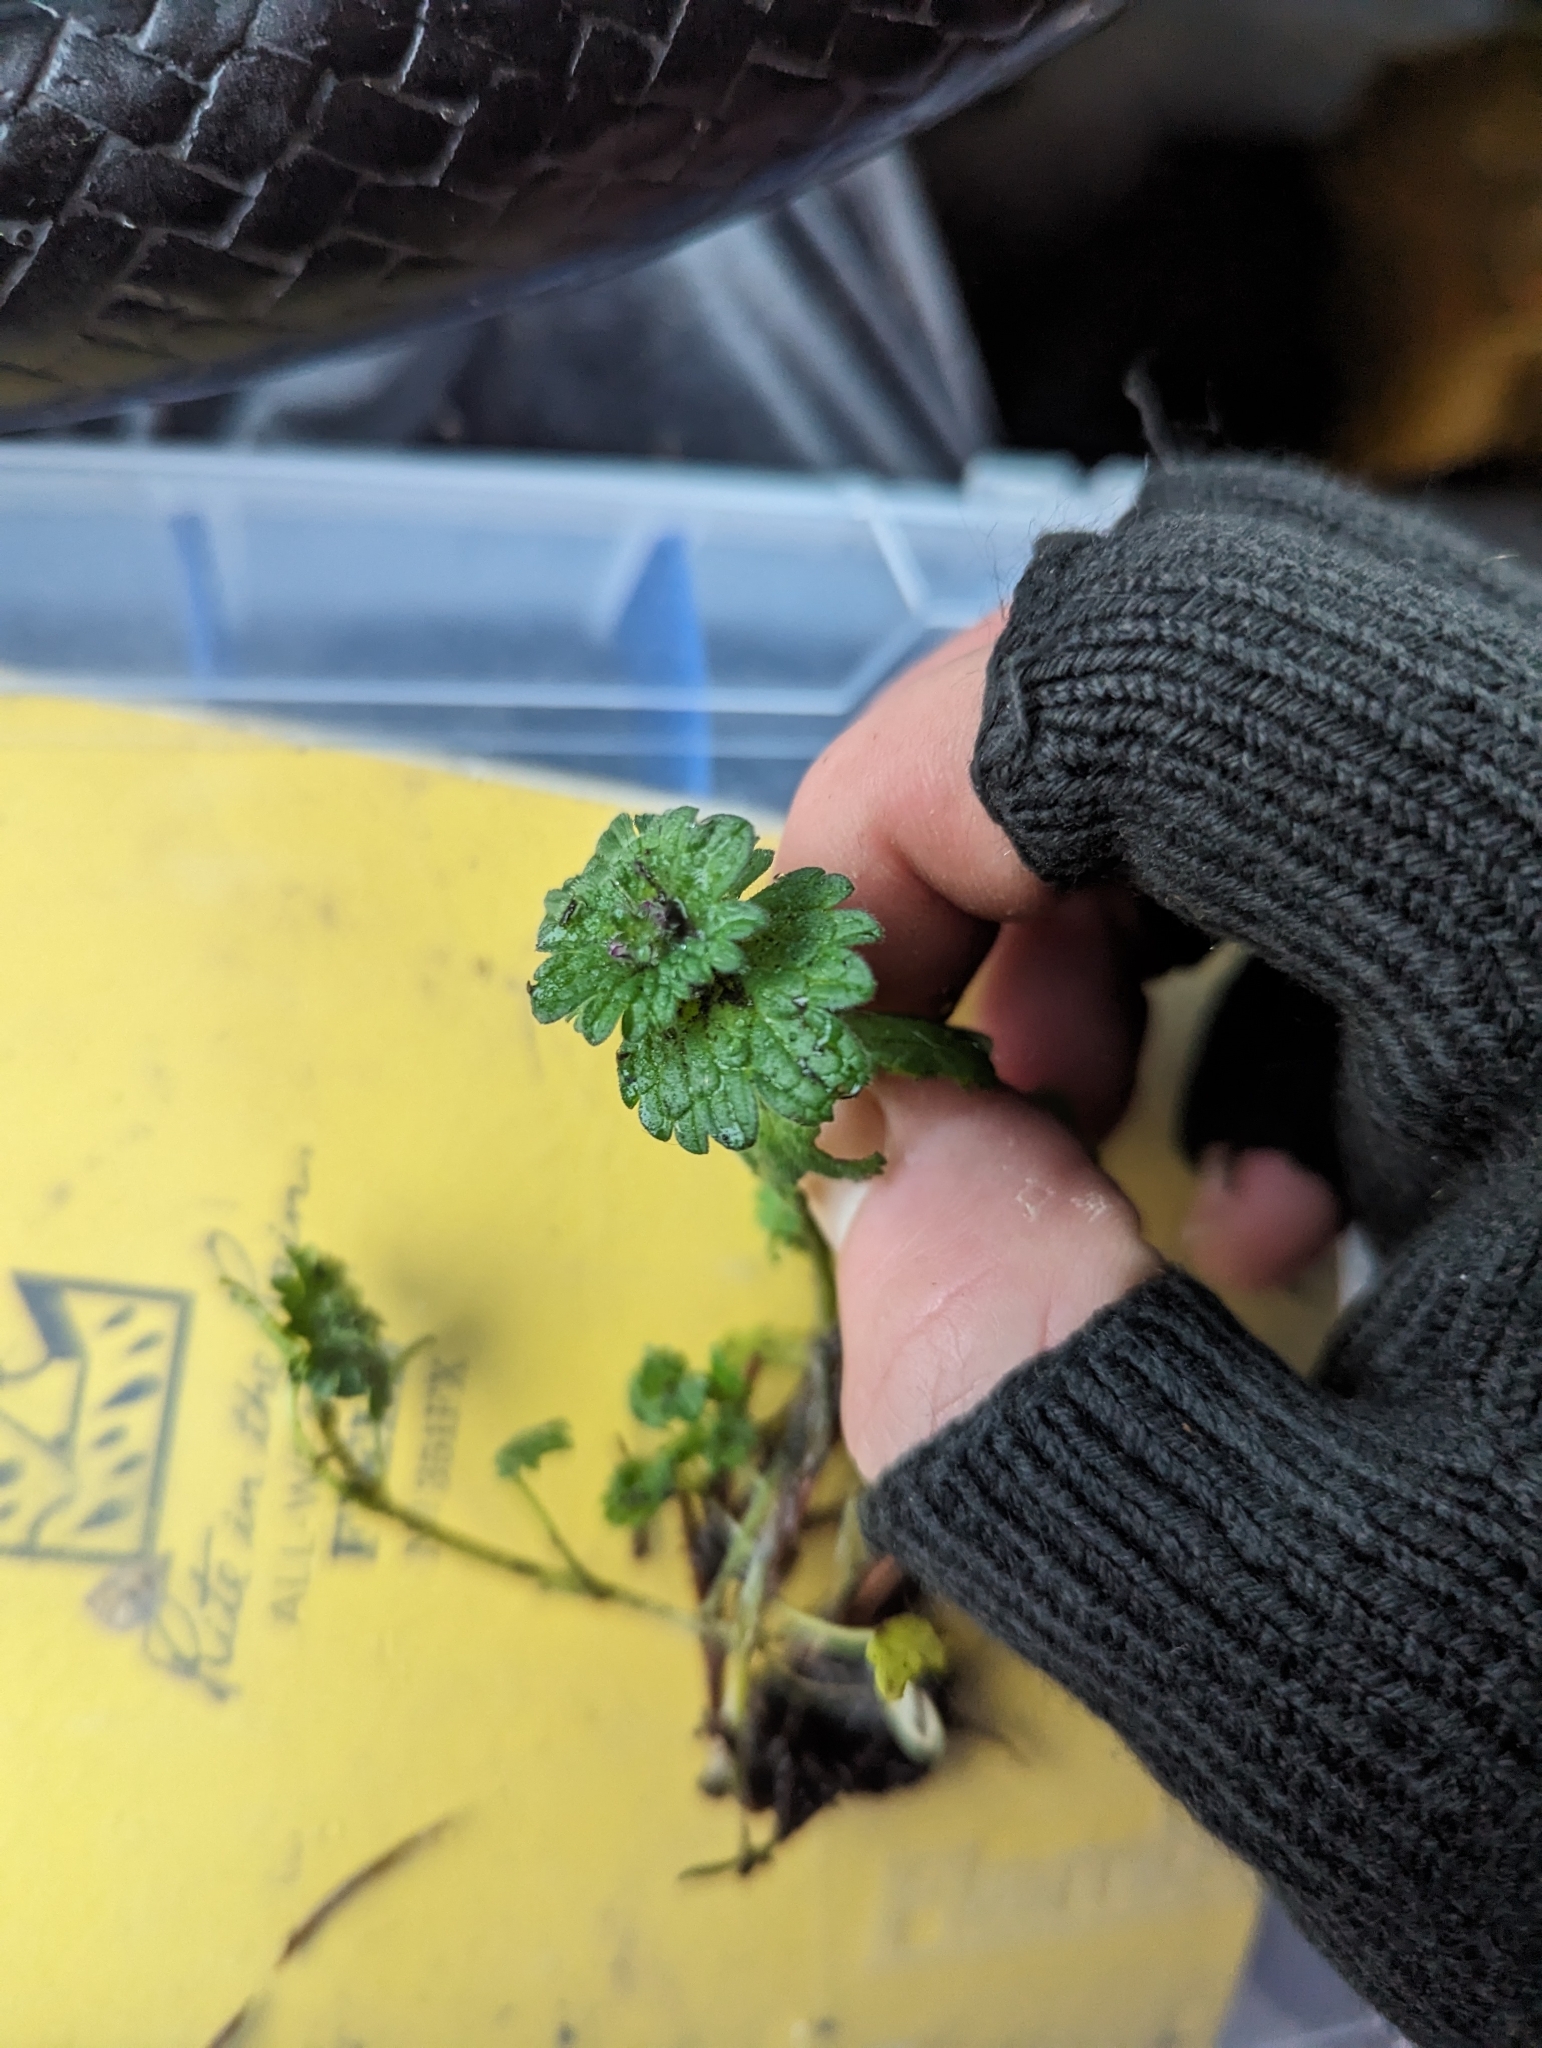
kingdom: Plantae
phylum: Tracheophyta
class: Magnoliopsida
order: Lamiales
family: Lamiaceae
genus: Lamium
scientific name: Lamium amplexicaule
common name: Henbit dead-nettle
